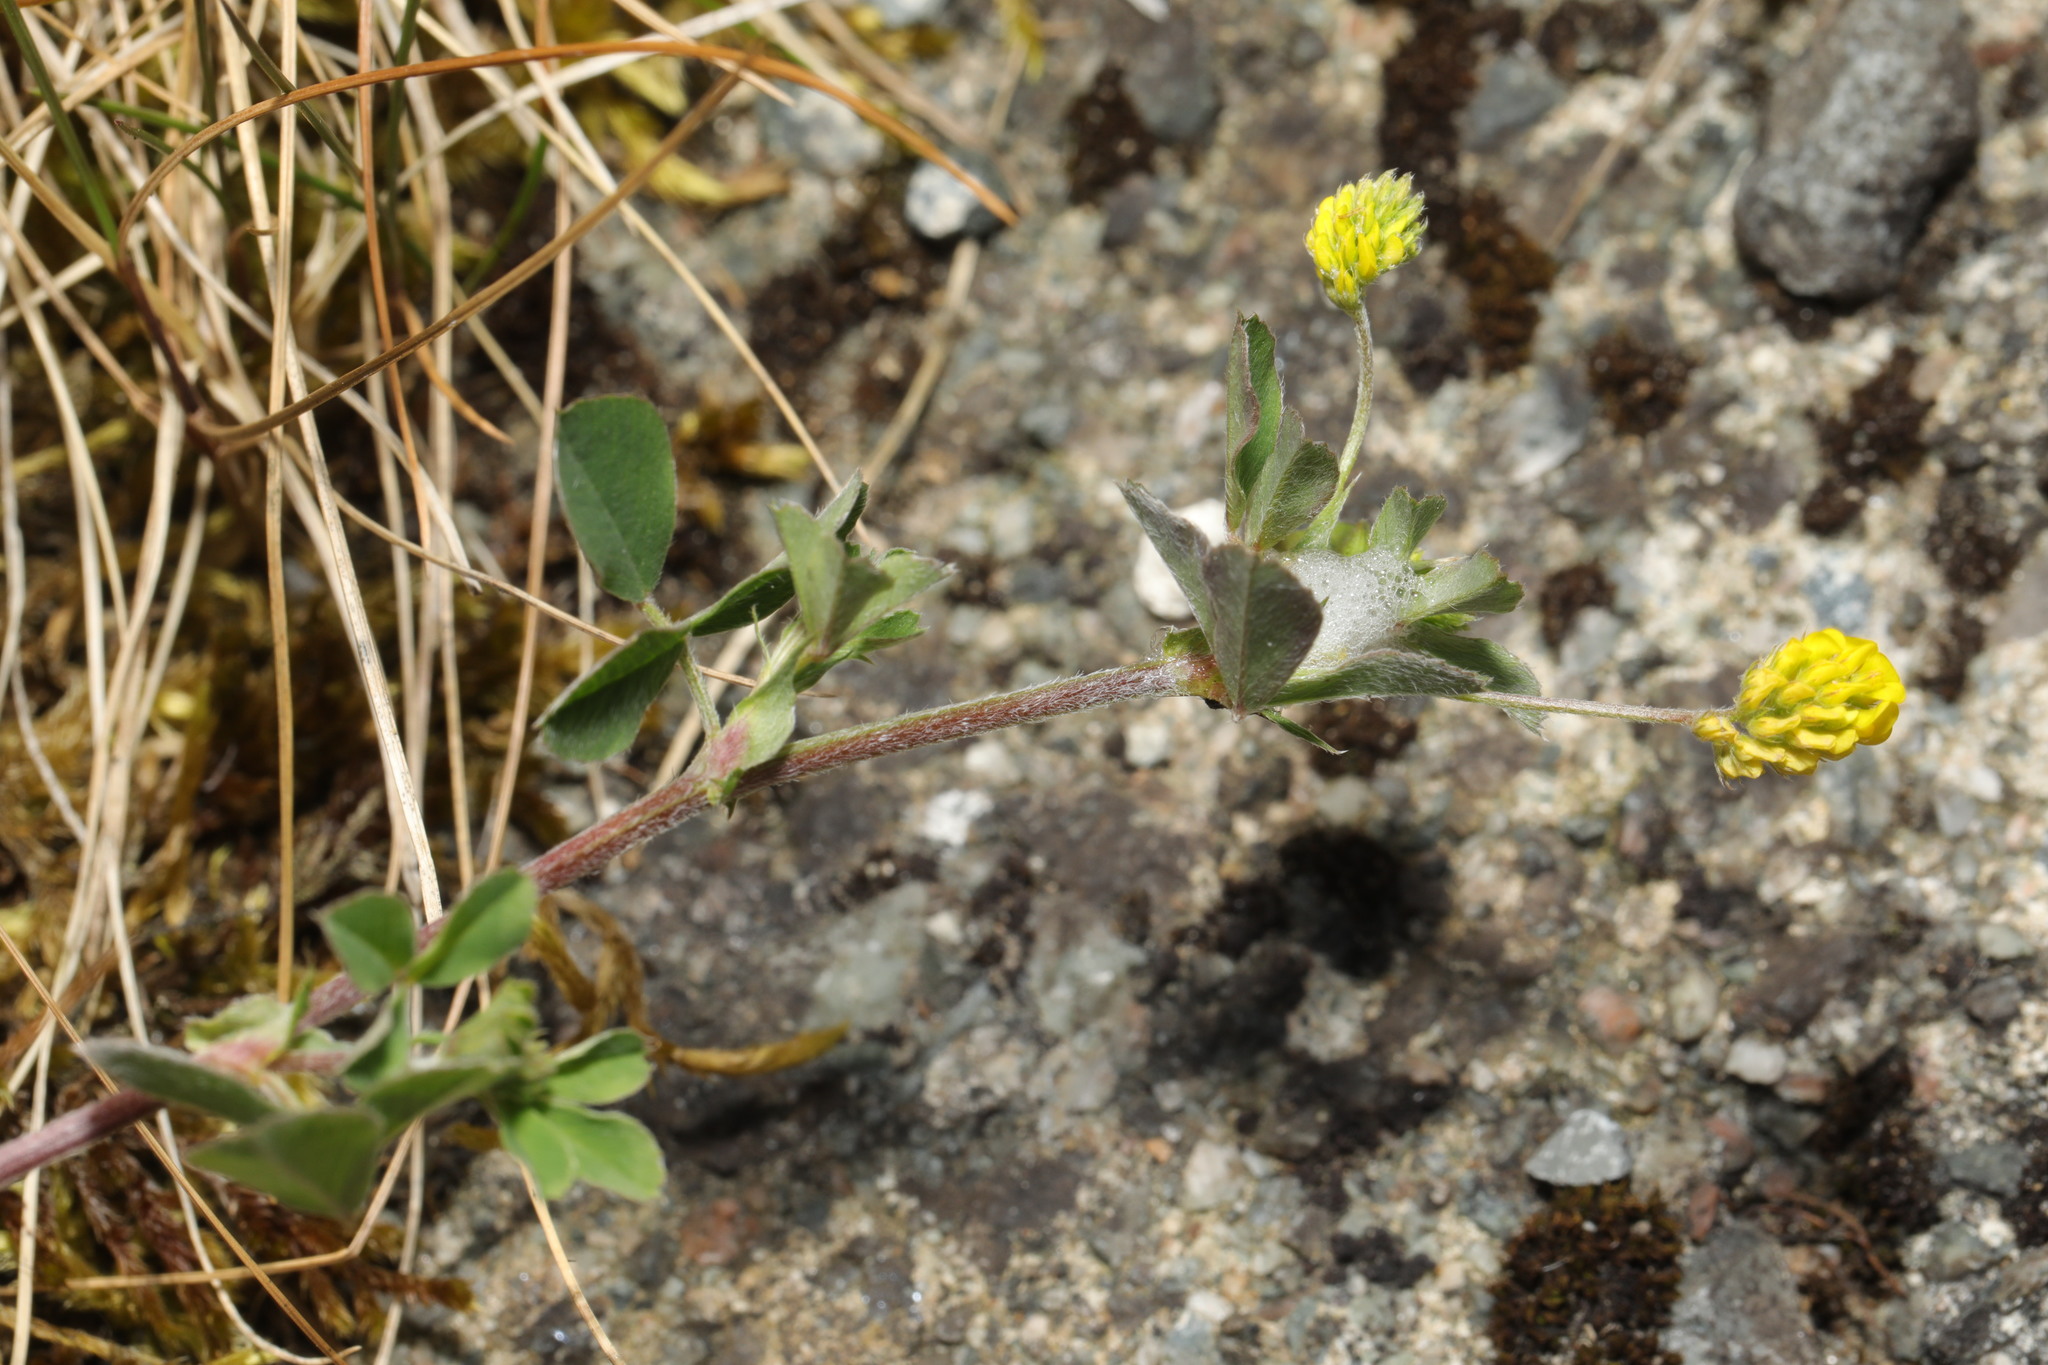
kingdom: Plantae
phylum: Tracheophyta
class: Magnoliopsida
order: Fabales
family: Fabaceae
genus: Medicago
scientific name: Medicago lupulina
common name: Black medick
